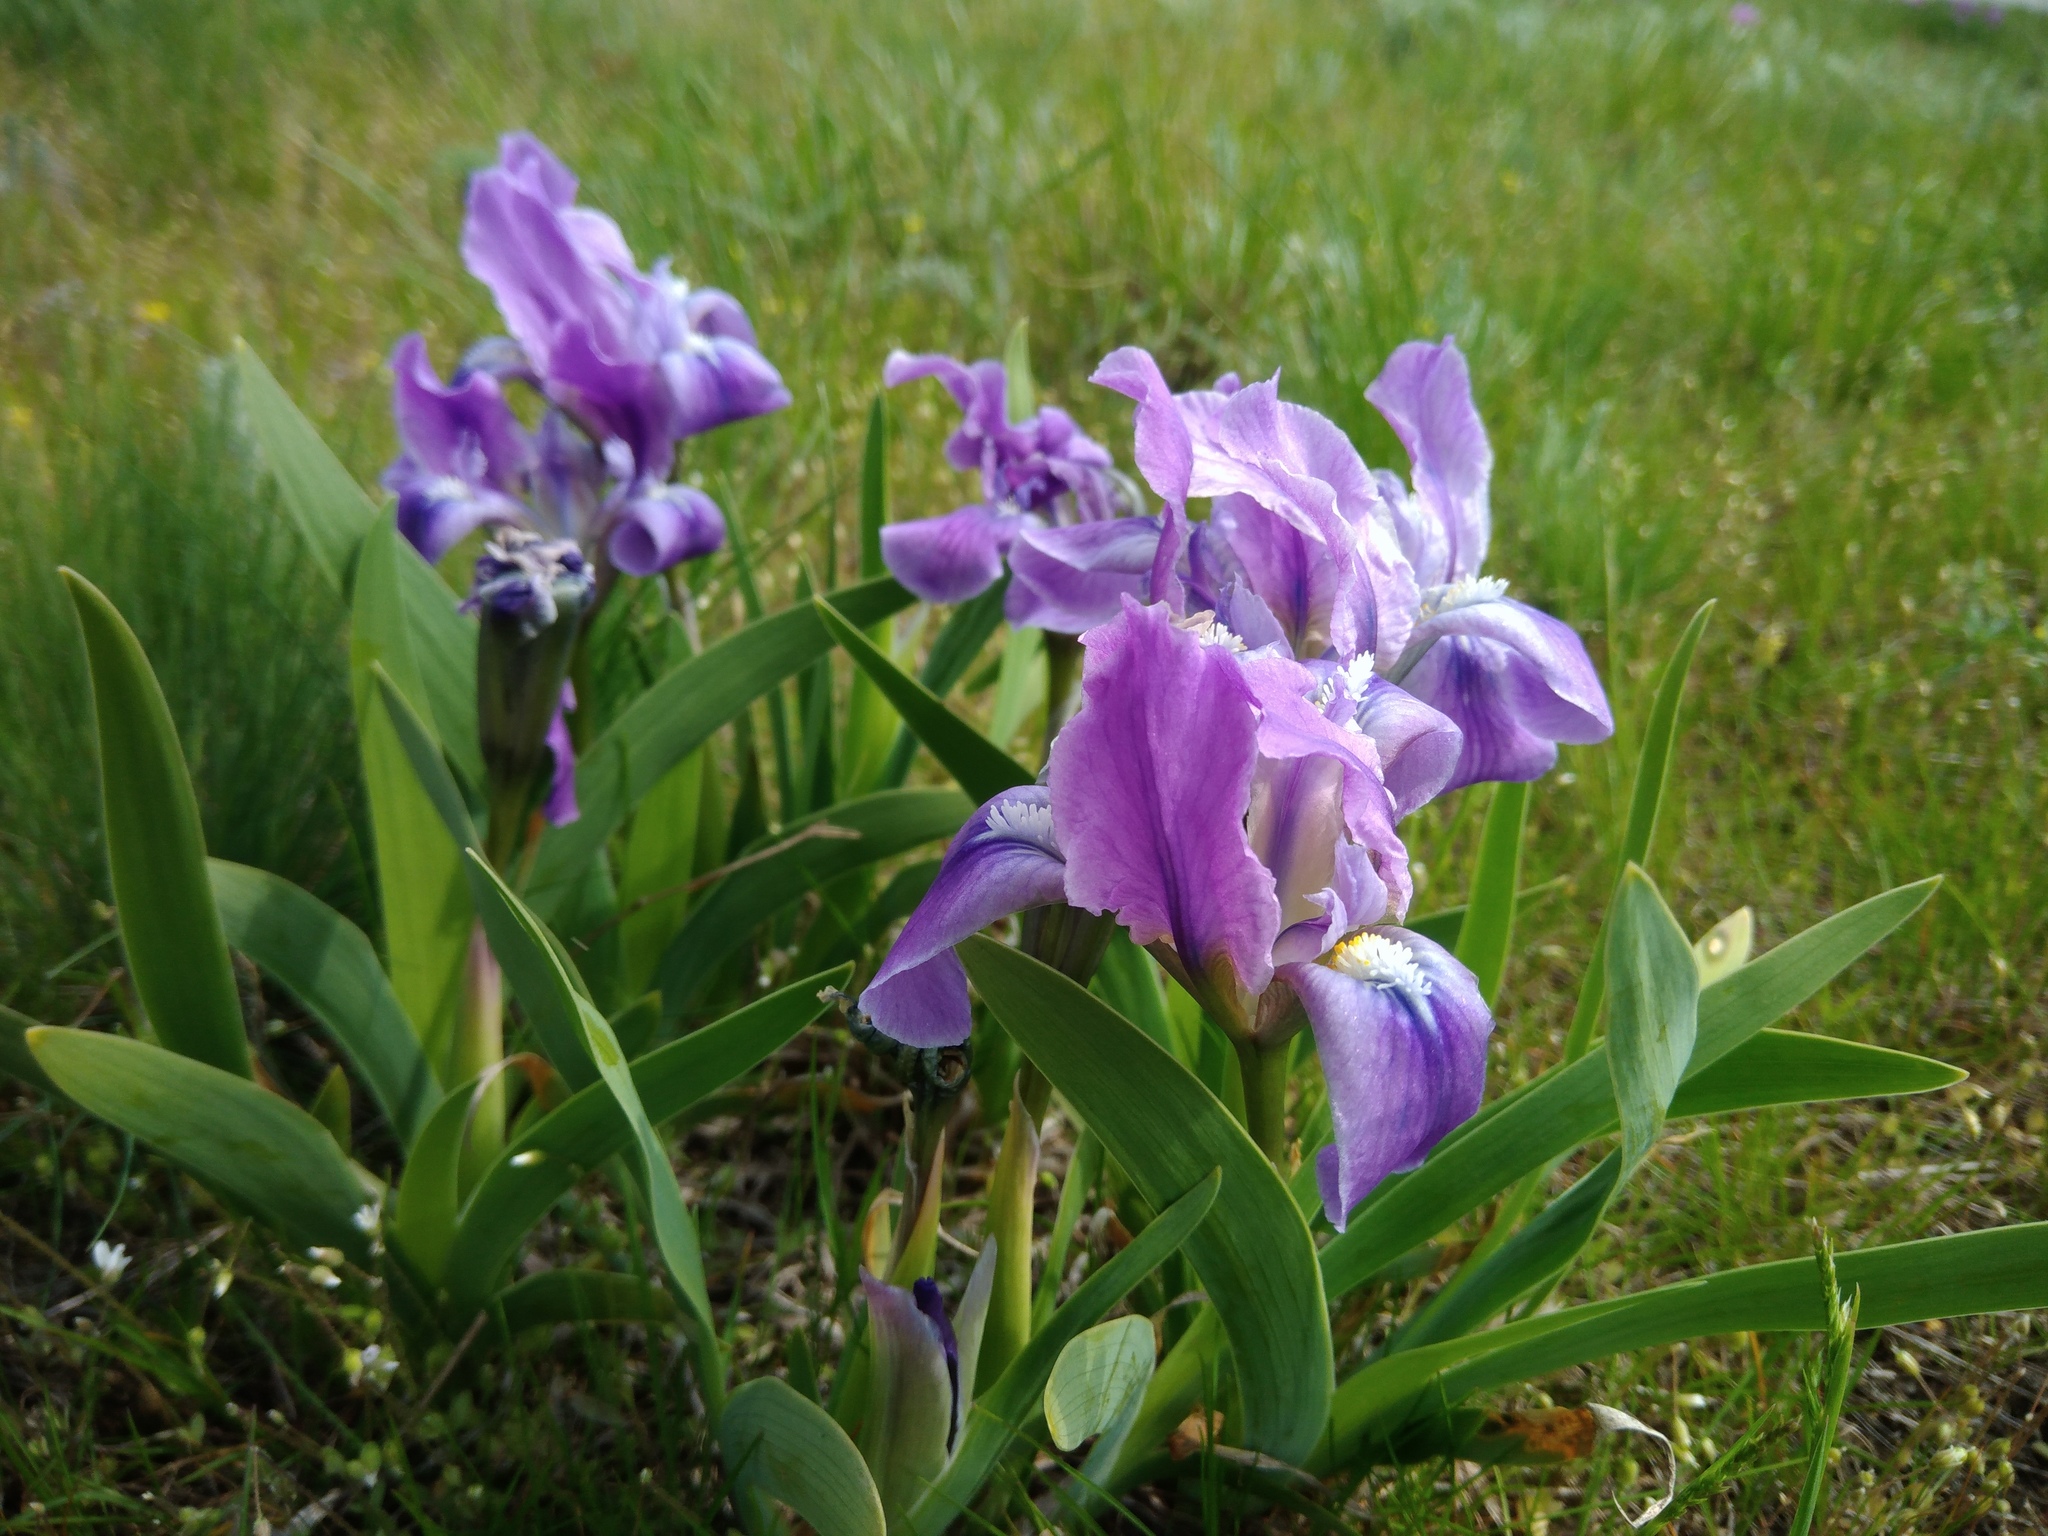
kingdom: Plantae
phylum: Tracheophyta
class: Liliopsida
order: Asparagales
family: Iridaceae
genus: Iris
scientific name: Iris pumila
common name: Dwarf iris
